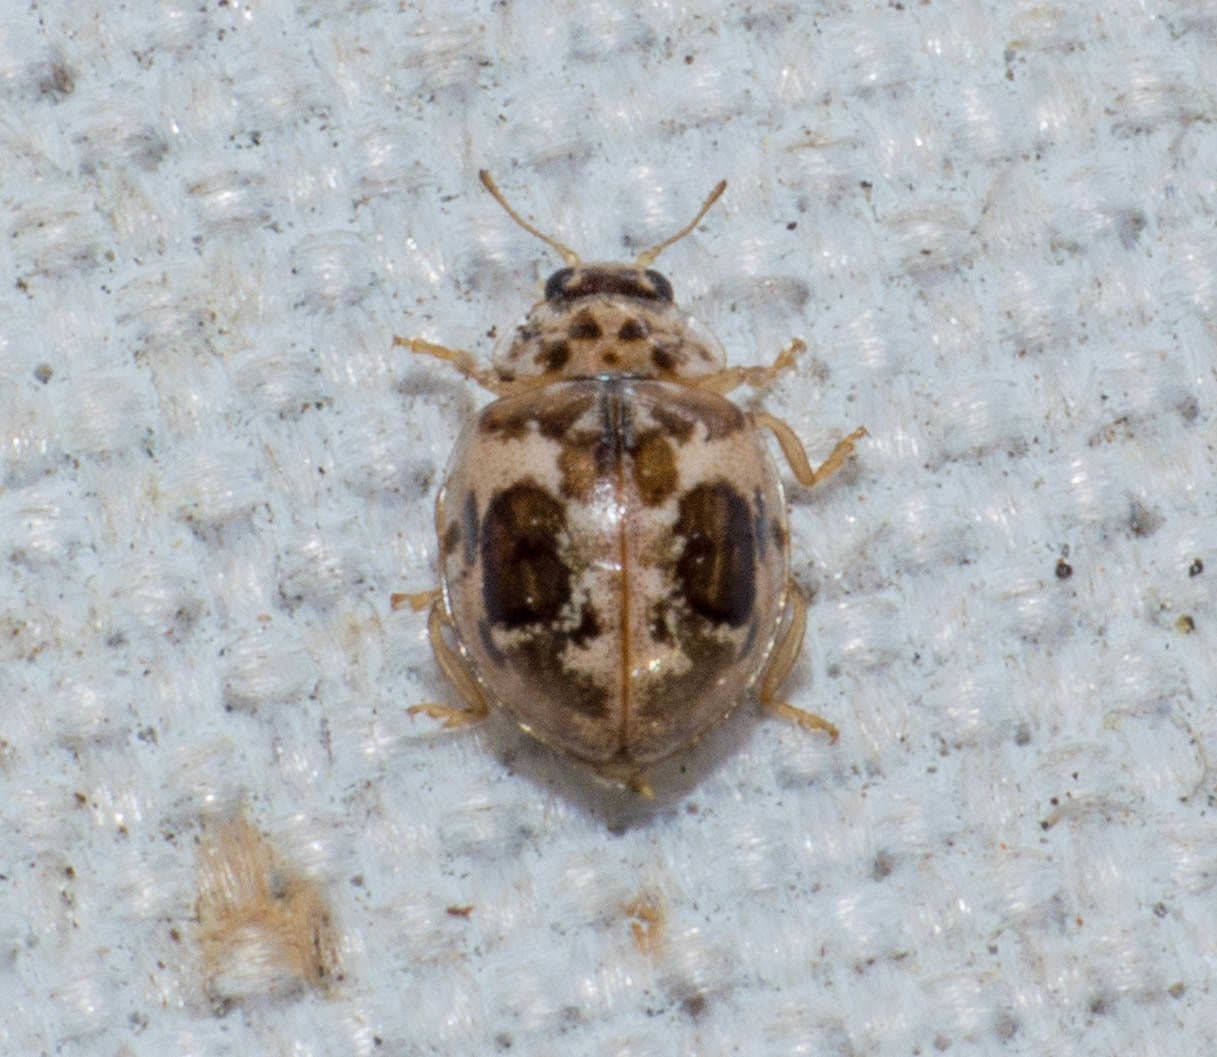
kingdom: Animalia
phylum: Arthropoda
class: Insecta
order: Coleoptera
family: Coccinellidae
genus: Psyllobora
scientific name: Psyllobora
